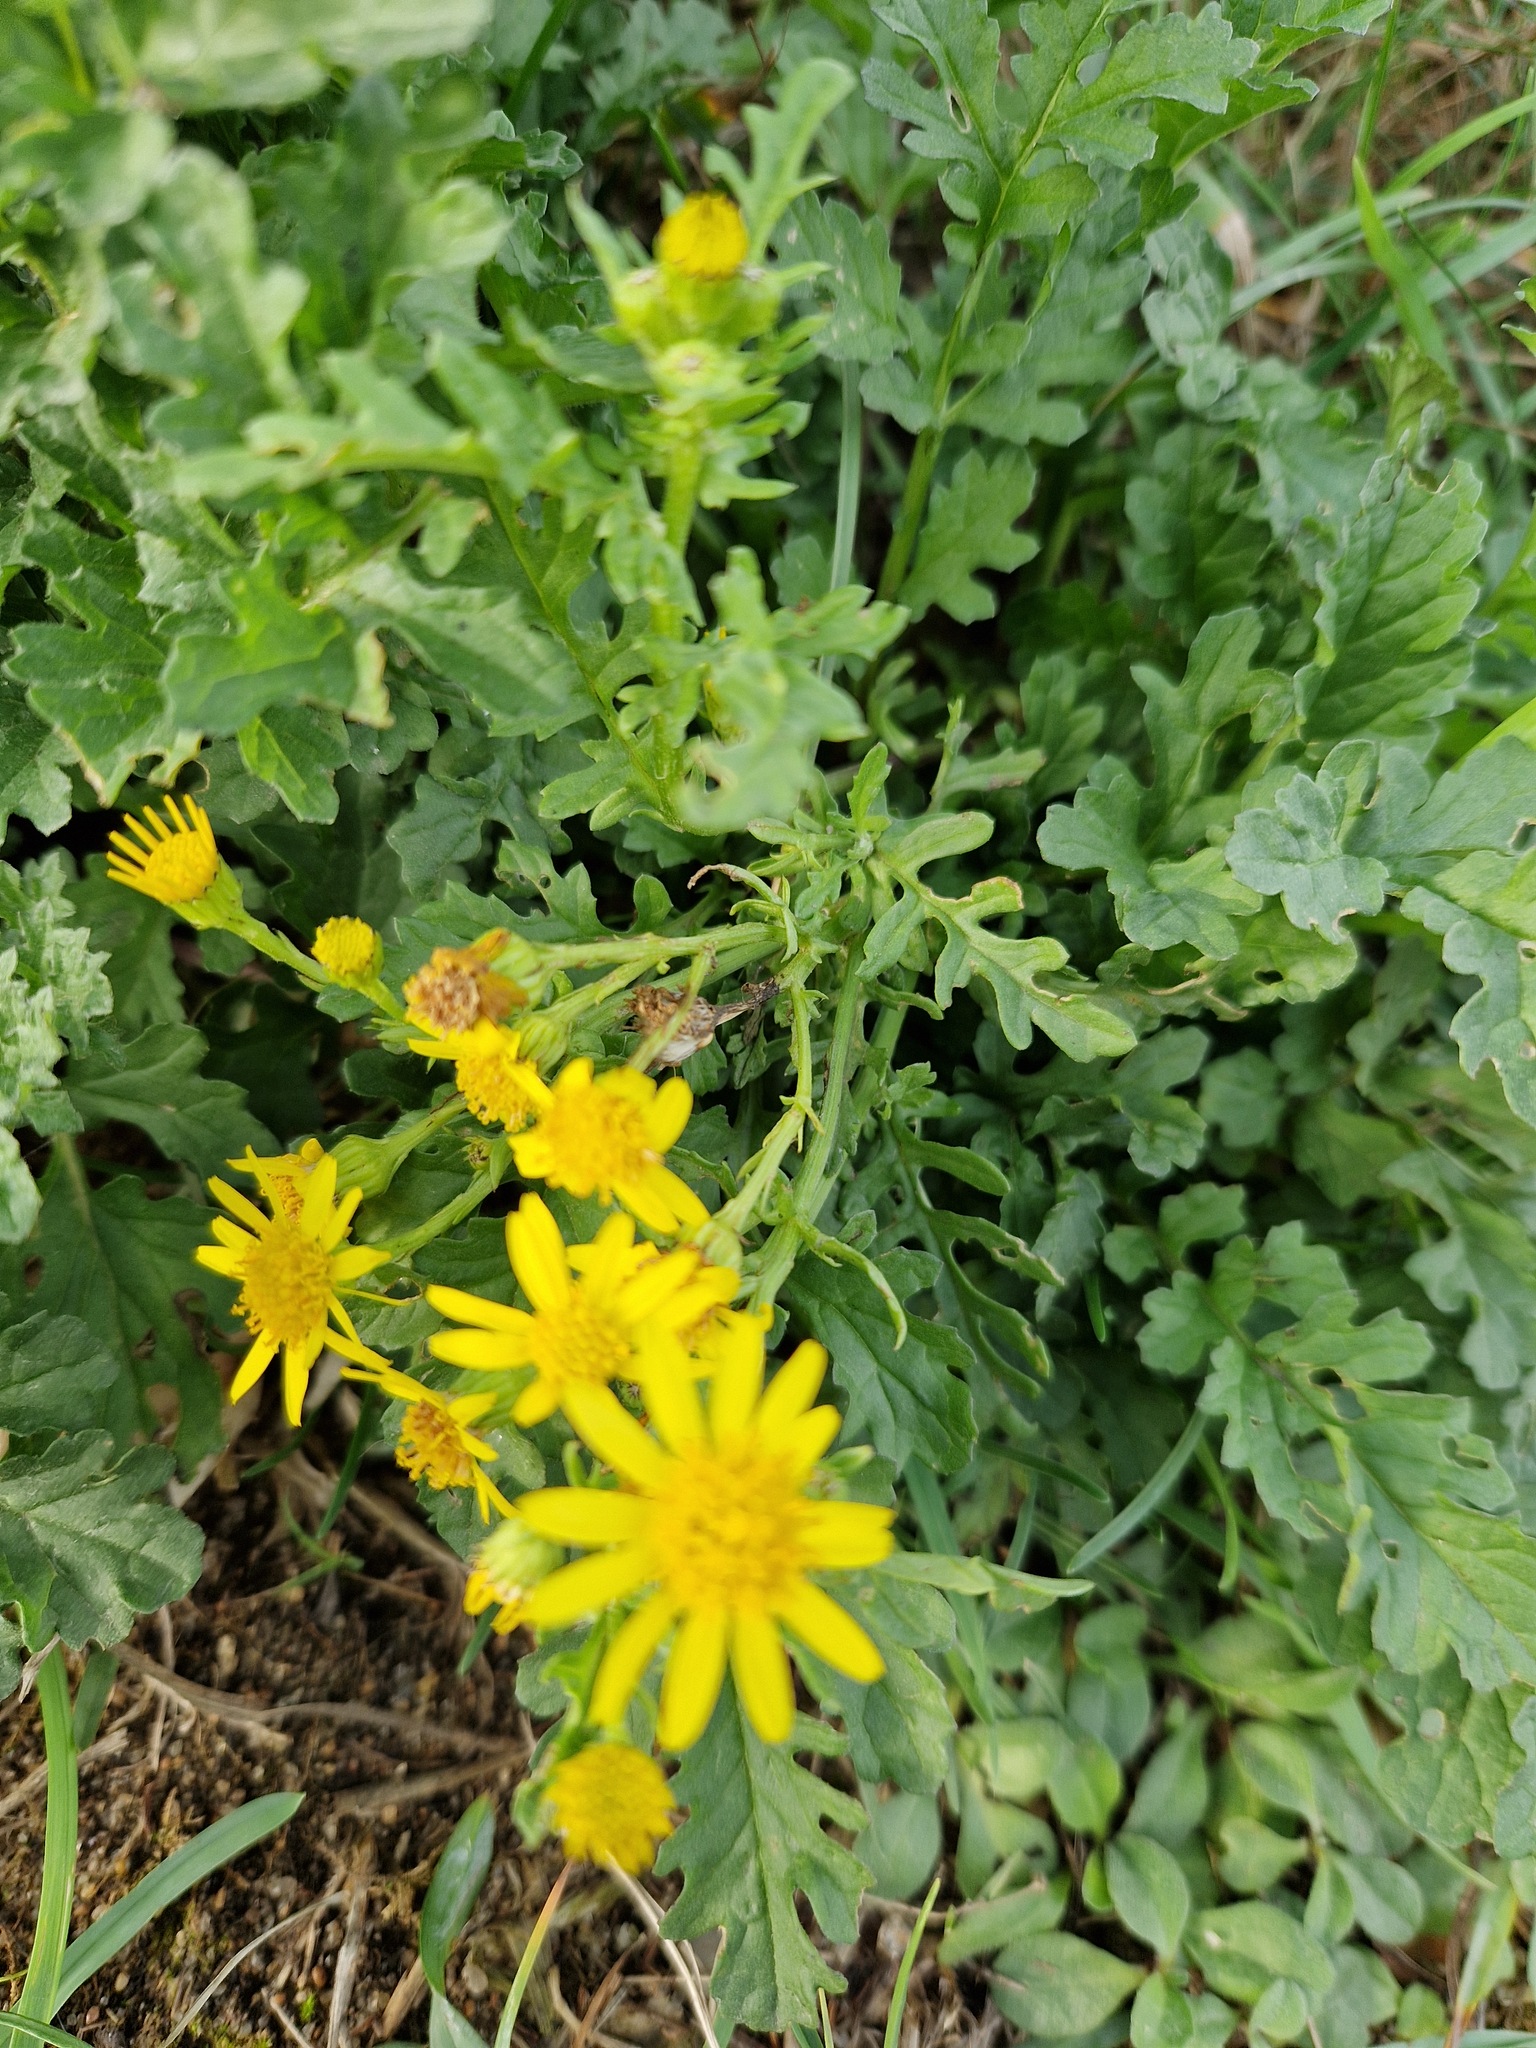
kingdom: Plantae
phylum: Tracheophyta
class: Magnoliopsida
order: Asterales
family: Asteraceae
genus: Jacobaea
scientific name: Jacobaea vulgaris
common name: Stinking willie
